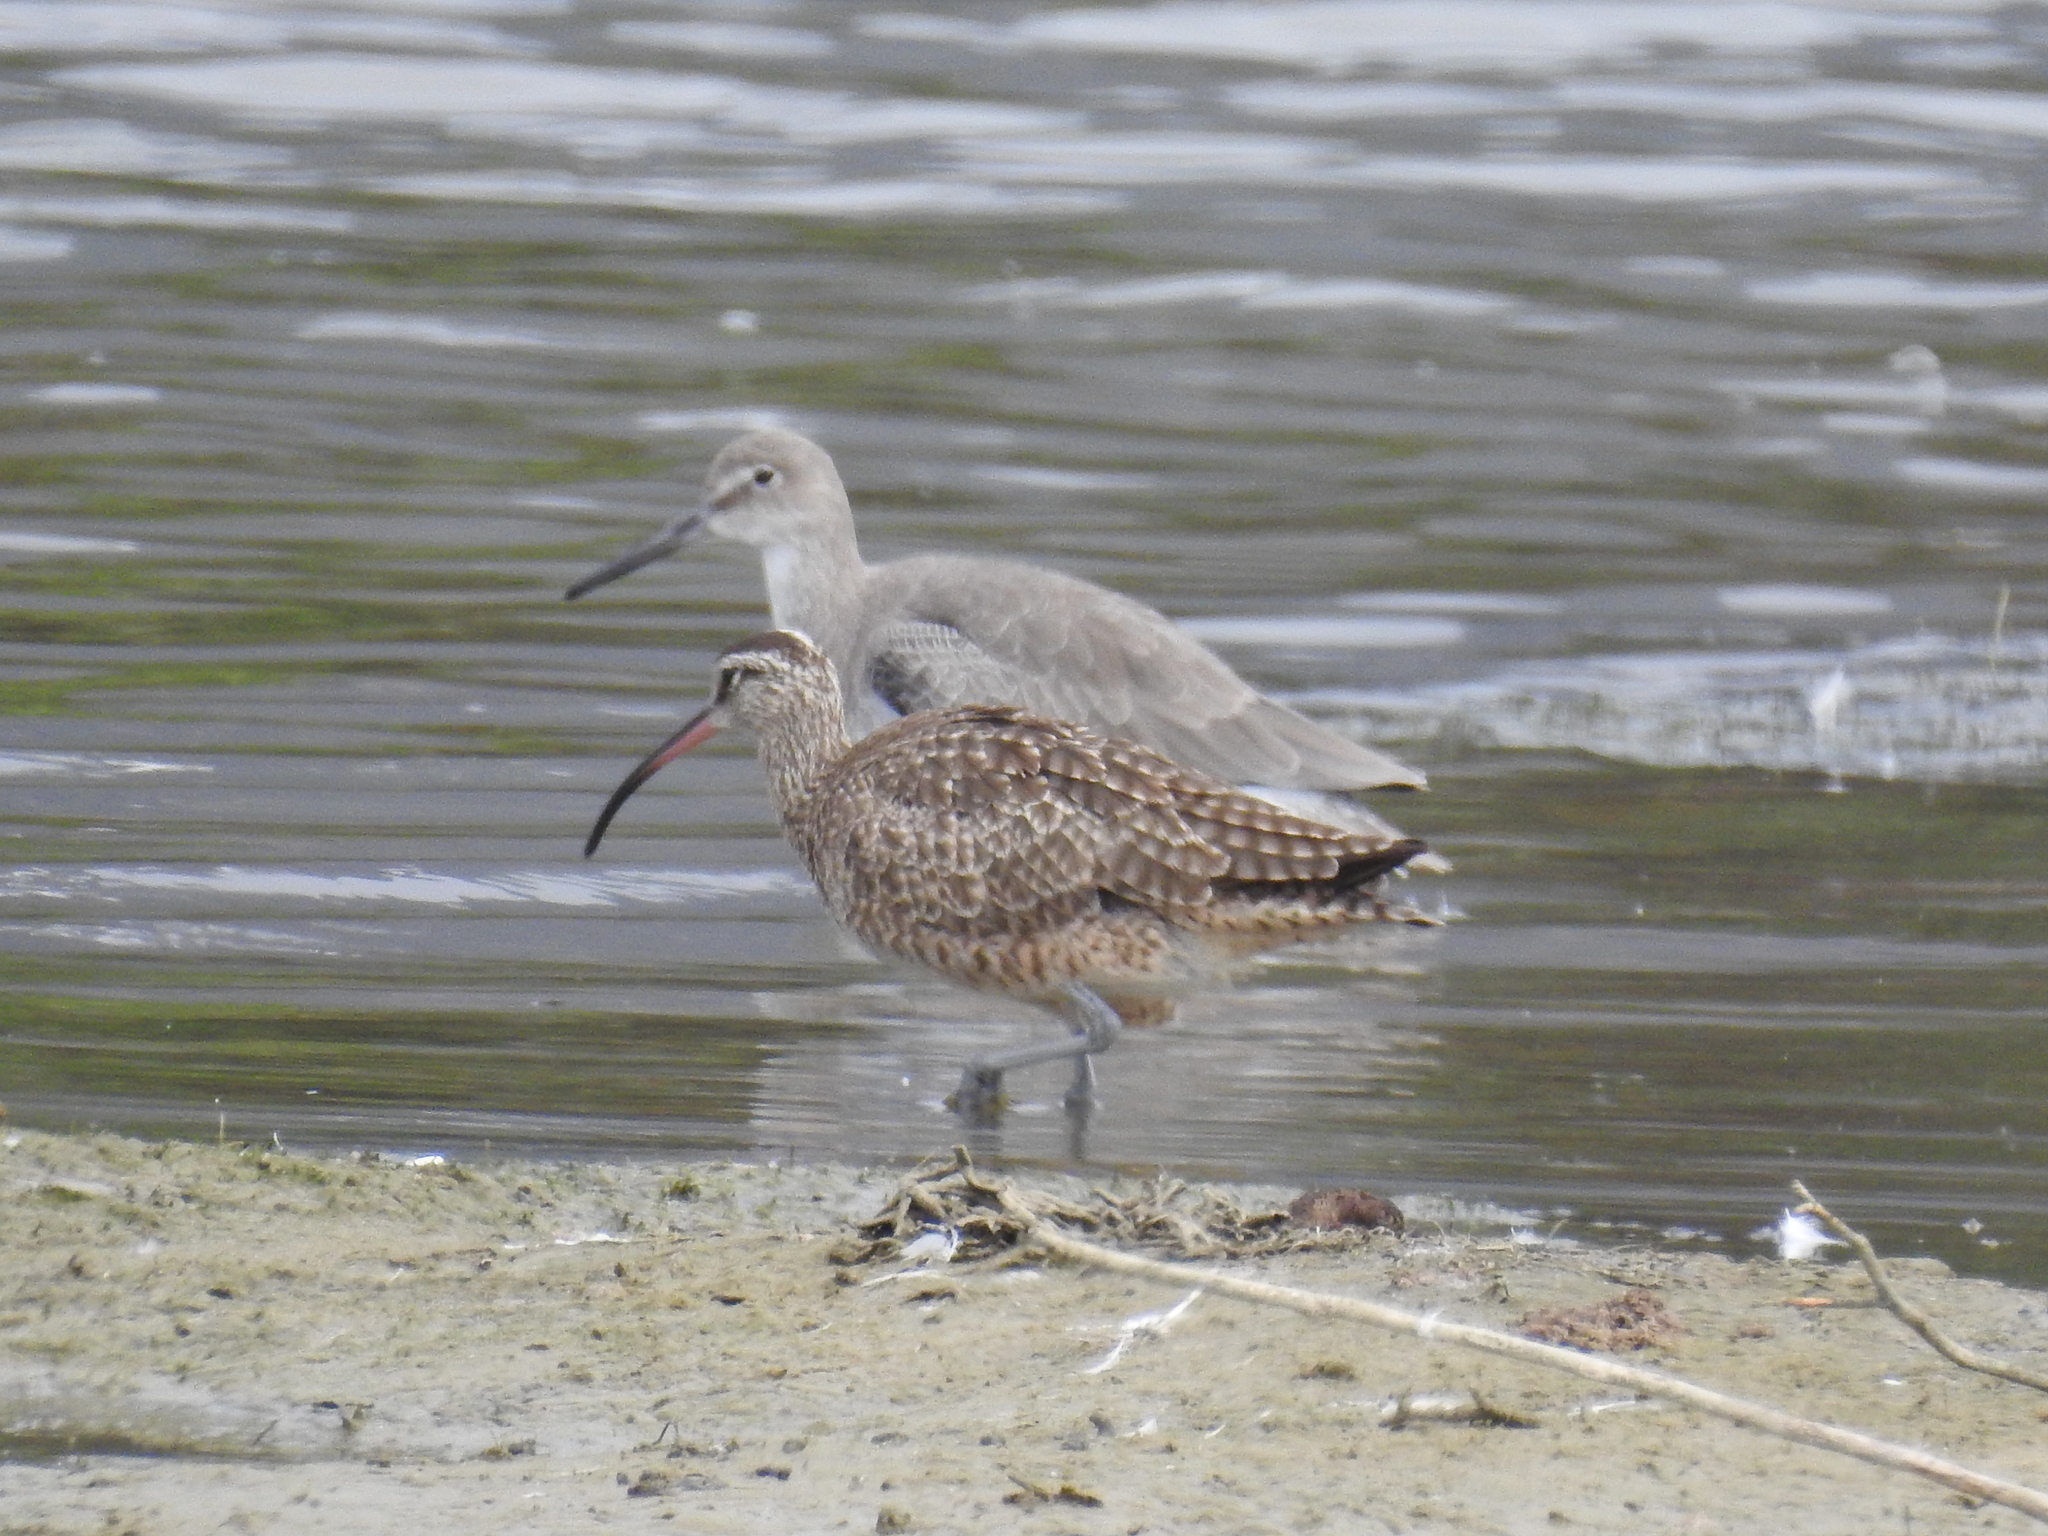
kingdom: Animalia
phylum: Chordata
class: Aves
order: Charadriiformes
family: Scolopacidae
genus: Numenius
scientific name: Numenius phaeopus
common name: Whimbrel
